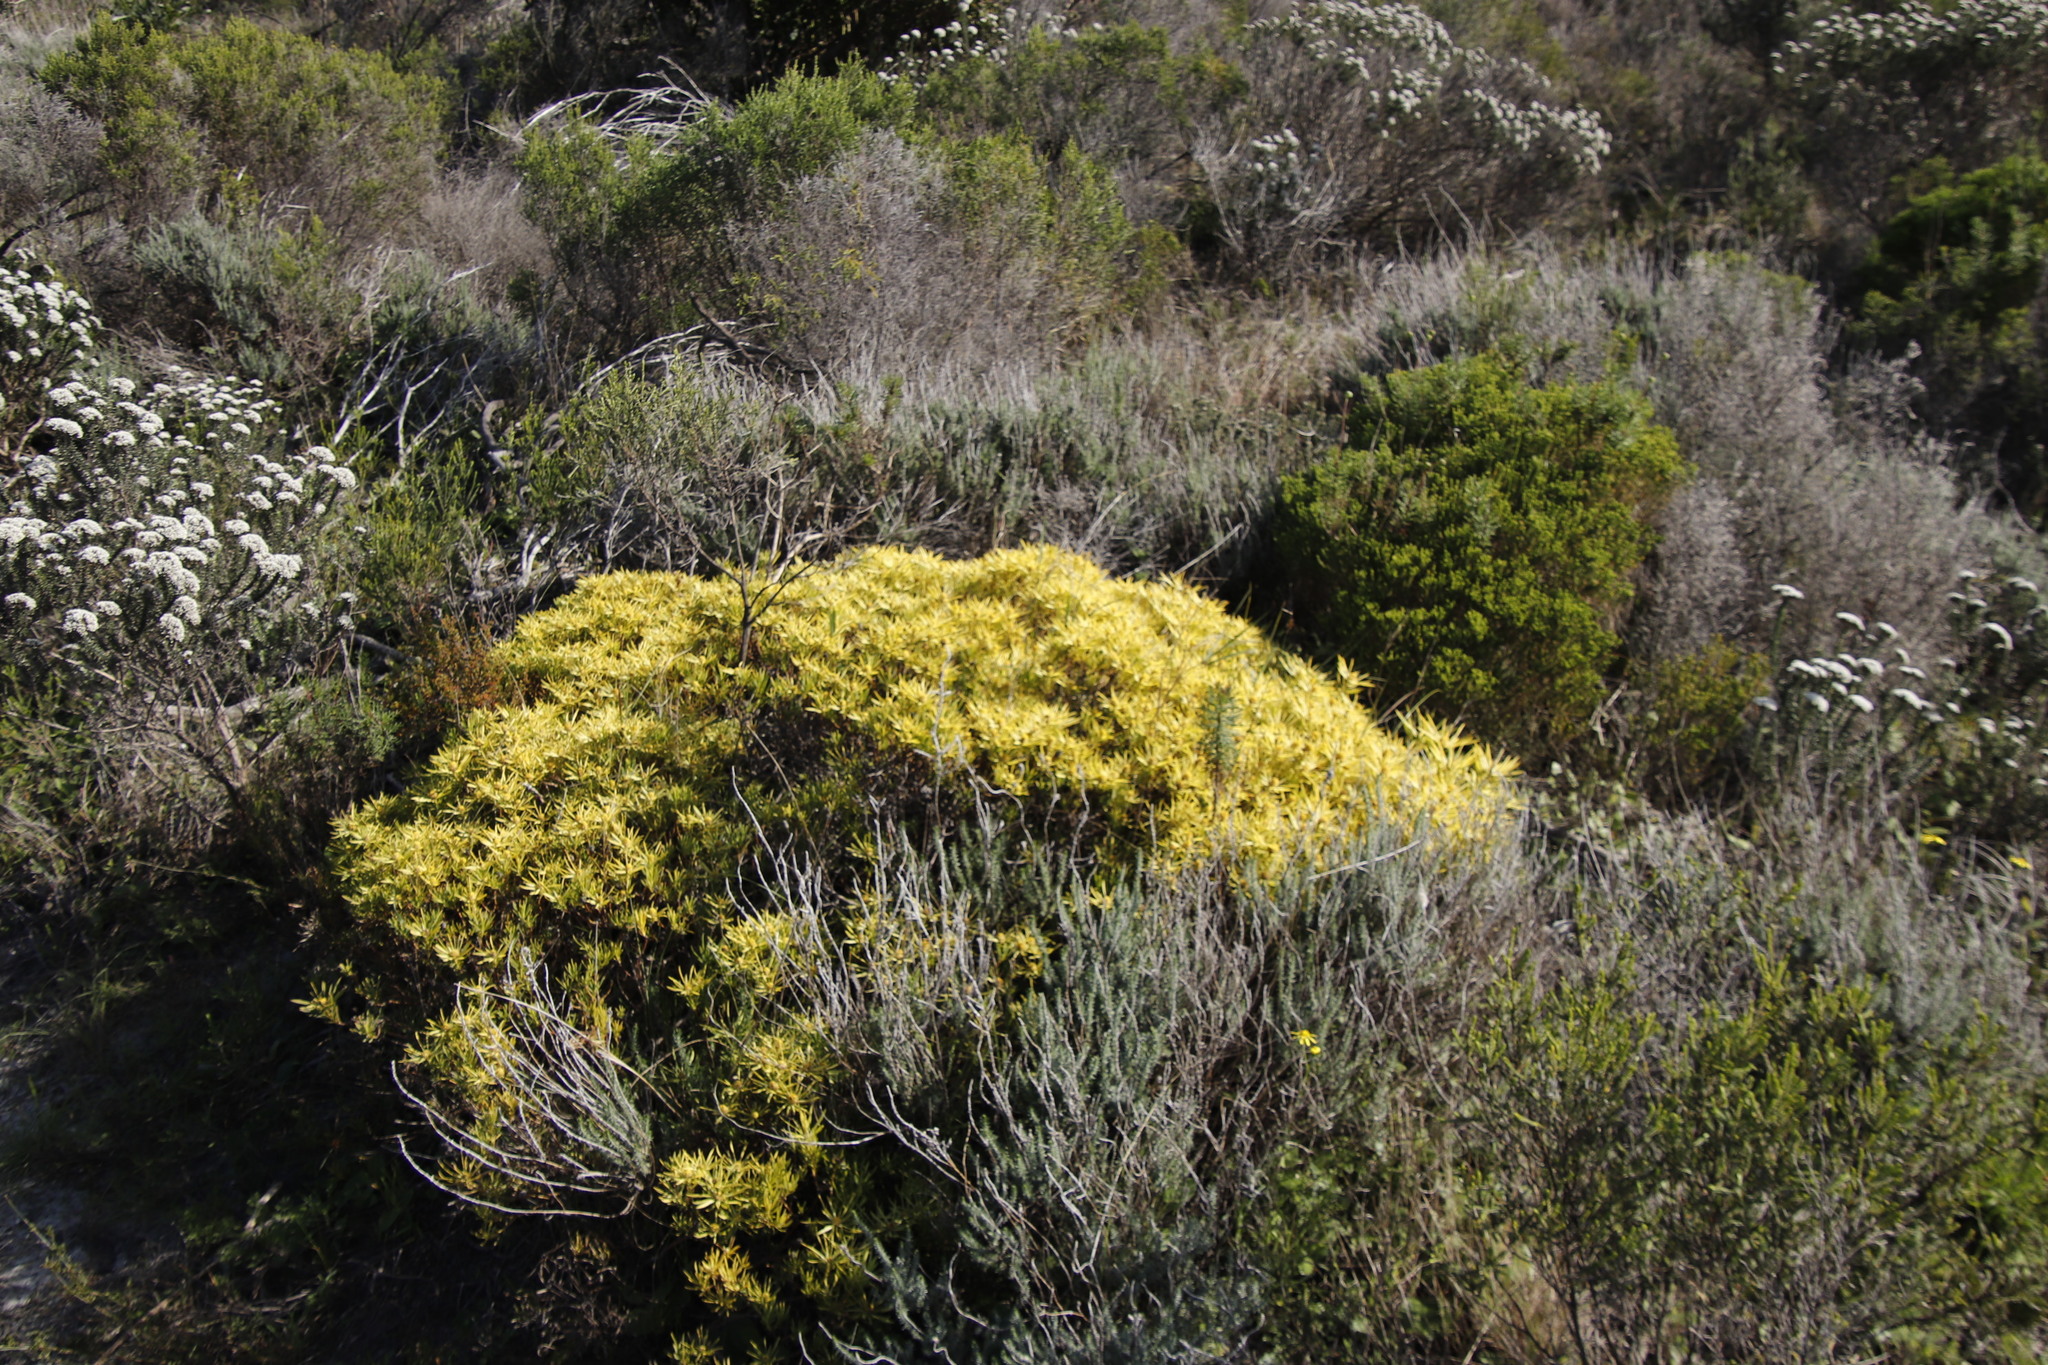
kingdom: Plantae
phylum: Tracheophyta
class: Magnoliopsida
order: Proteales
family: Proteaceae
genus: Leucadendron
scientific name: Leucadendron salignum
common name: Common sunshine conebush
